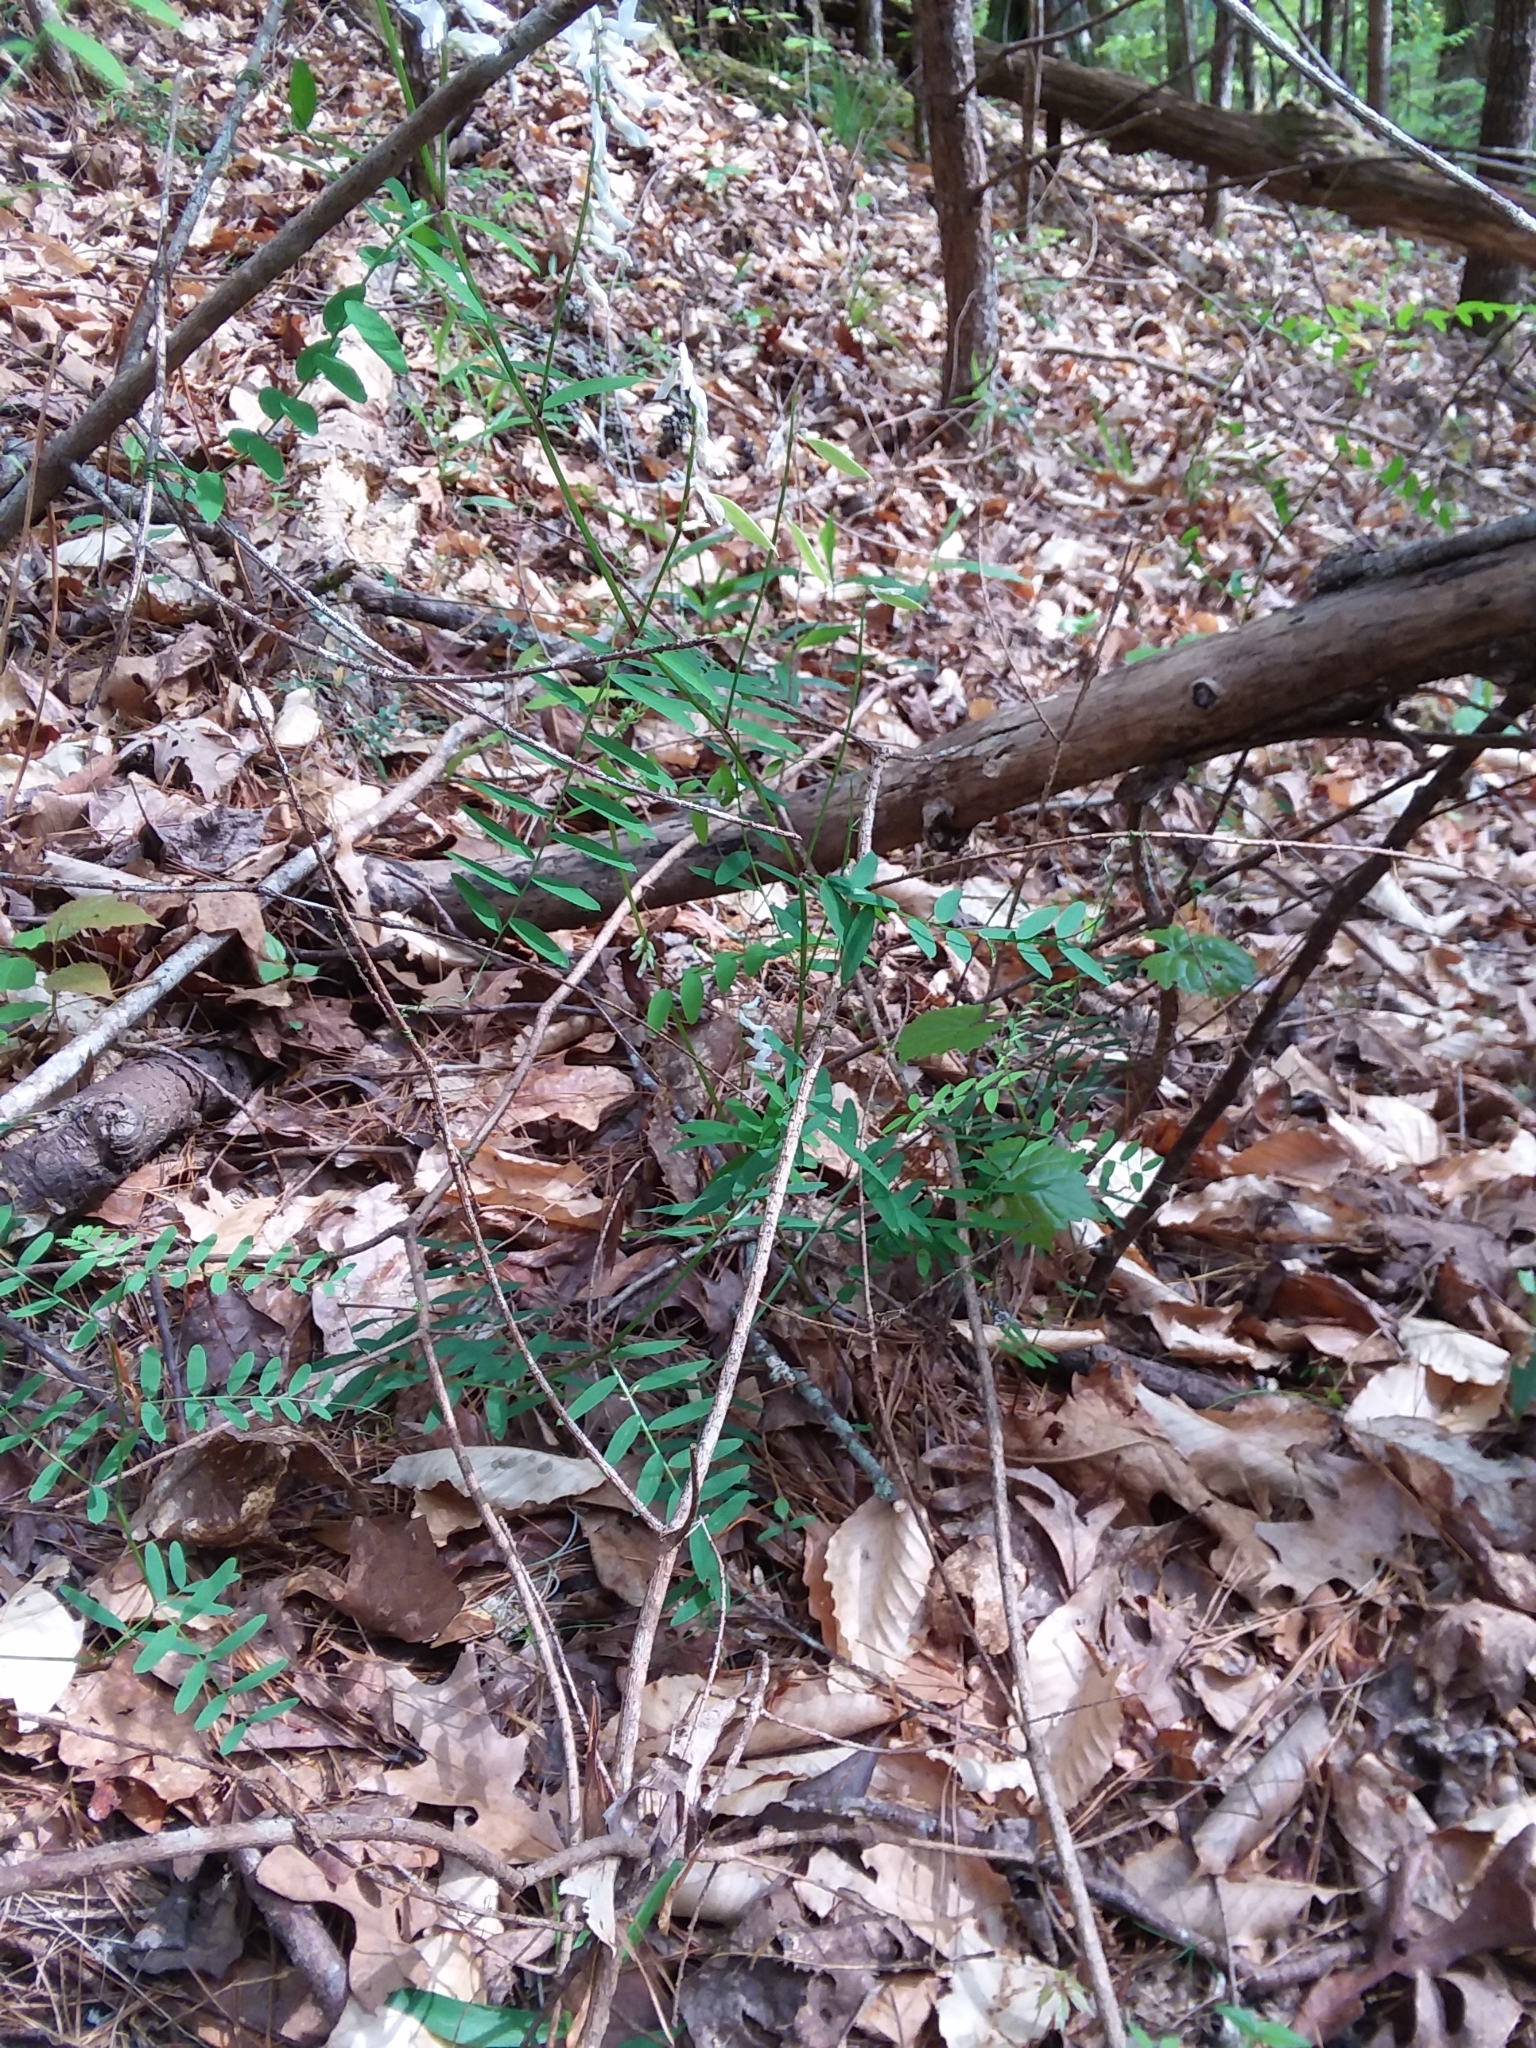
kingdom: Plantae
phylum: Tracheophyta
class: Magnoliopsida
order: Fabales
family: Fabaceae
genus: Vicia
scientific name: Vicia caroliniana
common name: Carolina vetch
